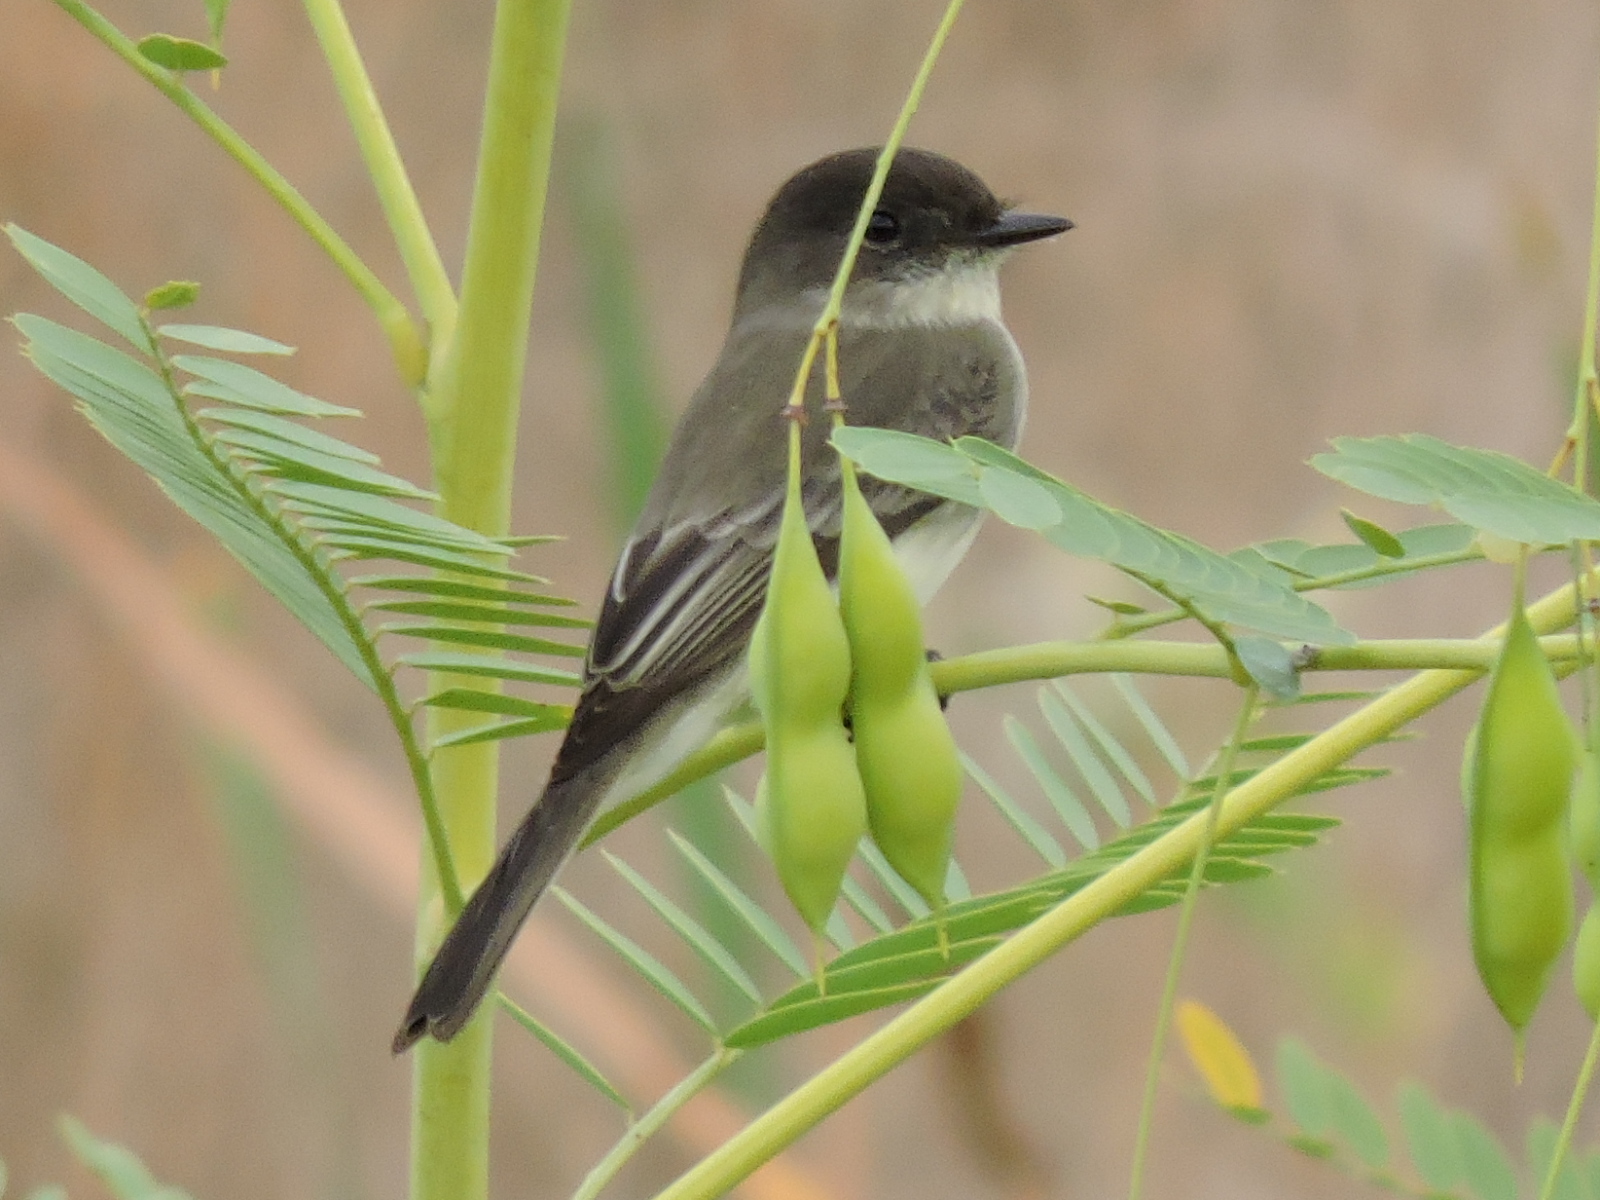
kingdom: Animalia
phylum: Chordata
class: Aves
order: Passeriformes
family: Tyrannidae
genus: Sayornis
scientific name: Sayornis phoebe
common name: Eastern phoebe
